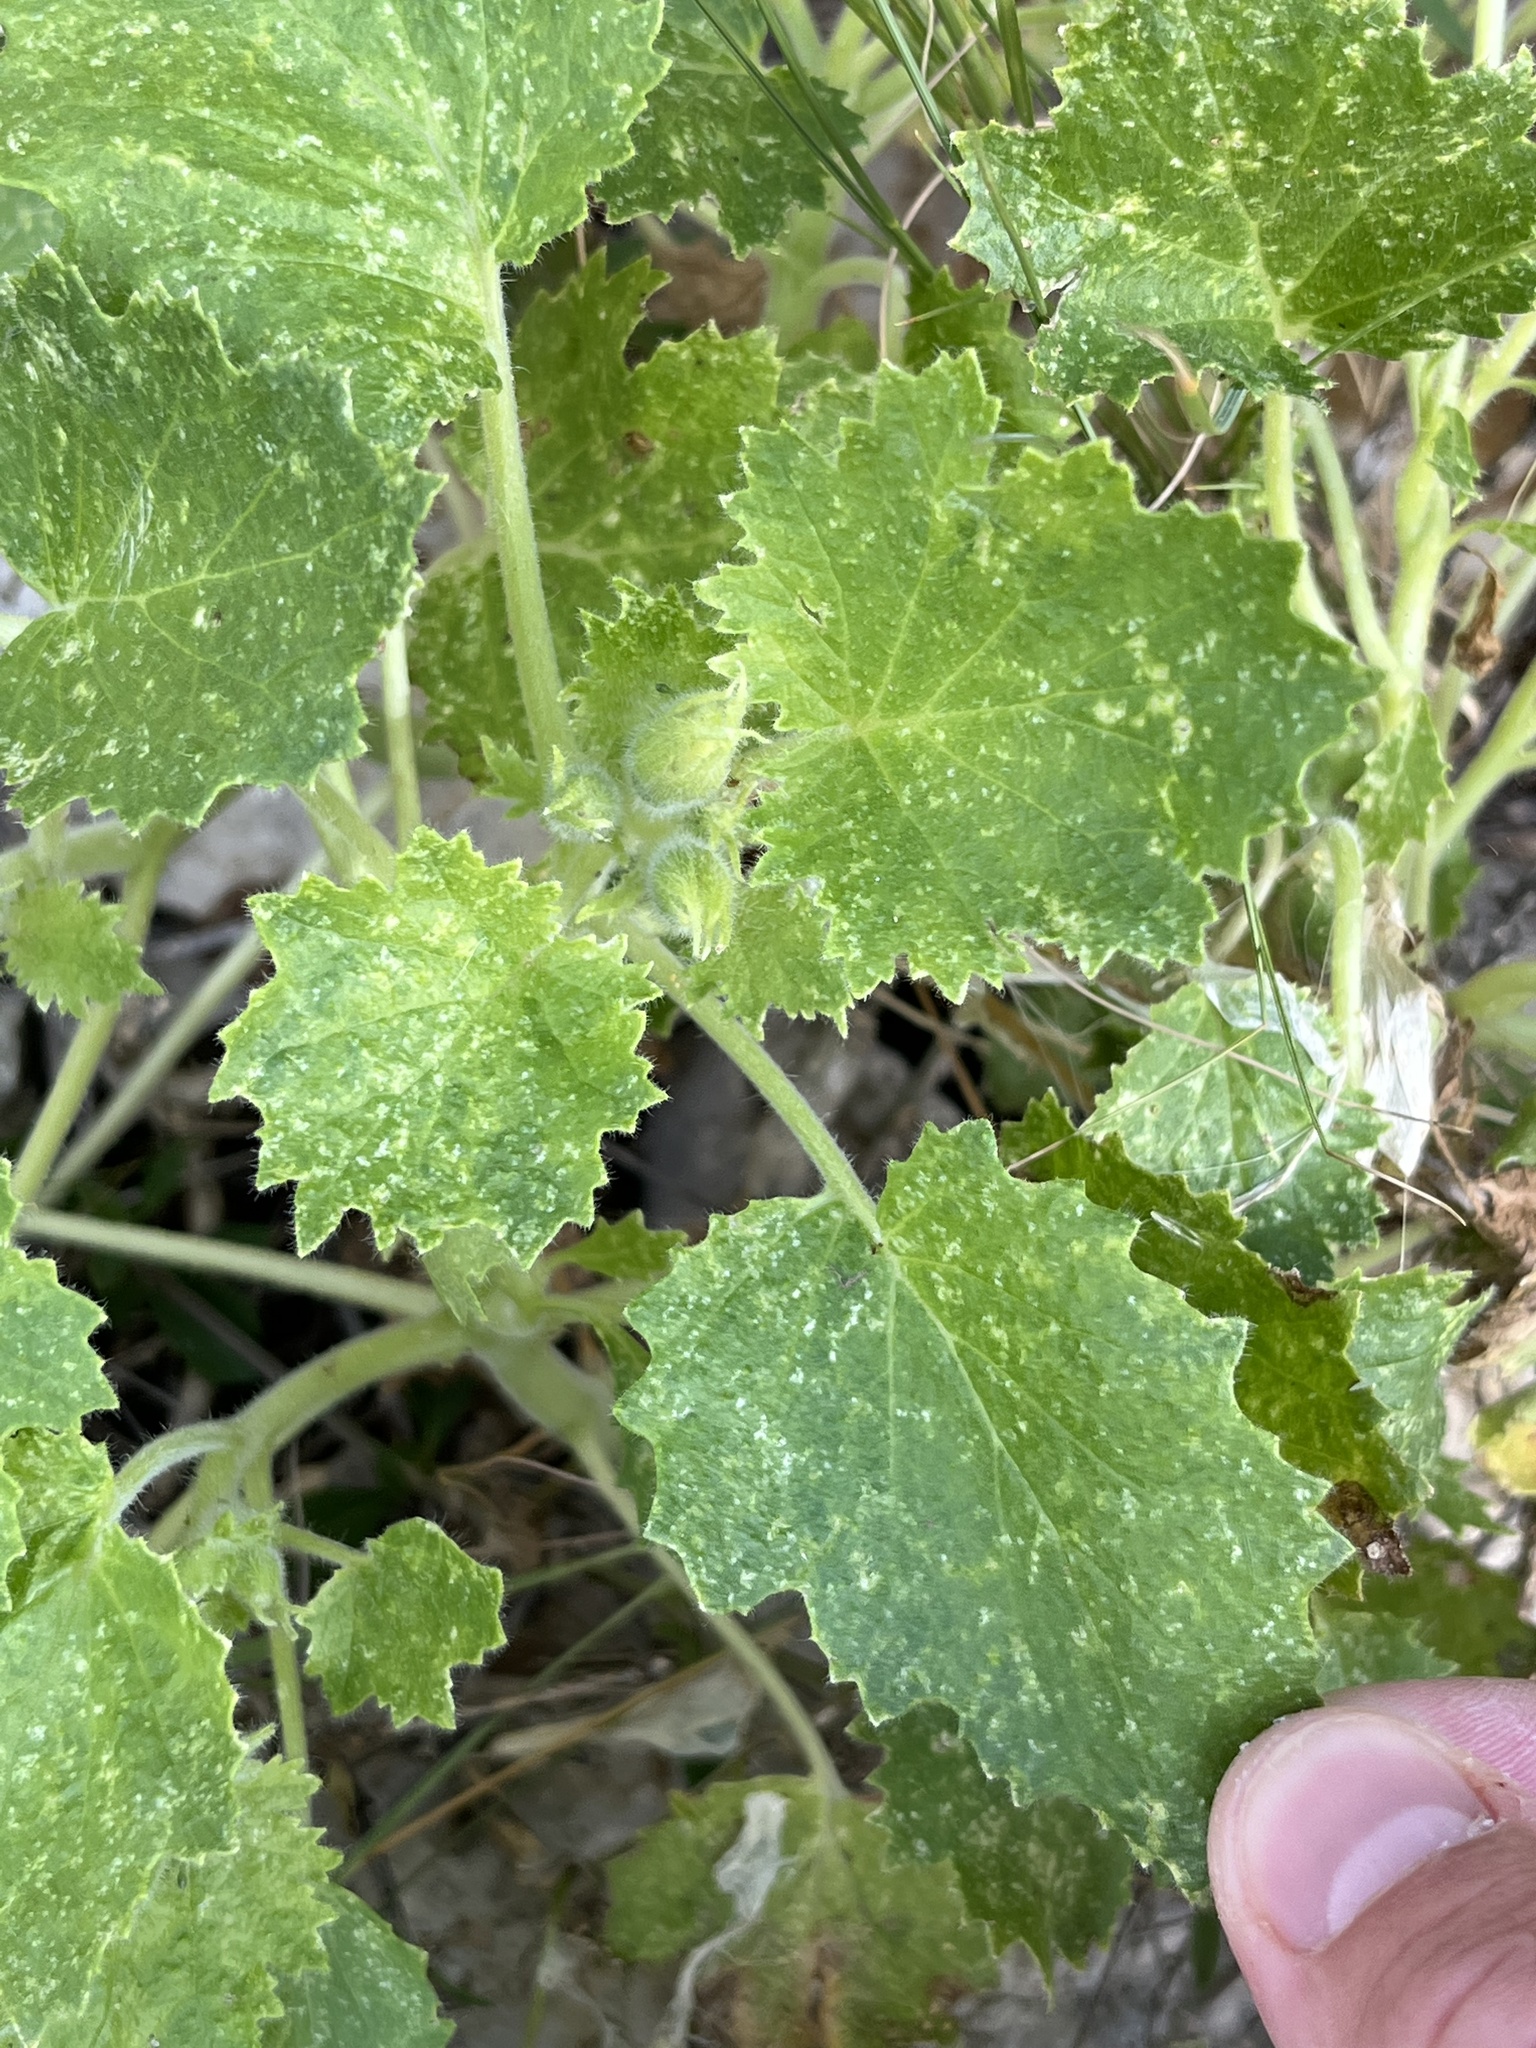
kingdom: Plantae
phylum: Tracheophyta
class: Magnoliopsida
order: Cornales
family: Loasaceae
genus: Eucnide
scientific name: Eucnide bartonioides
